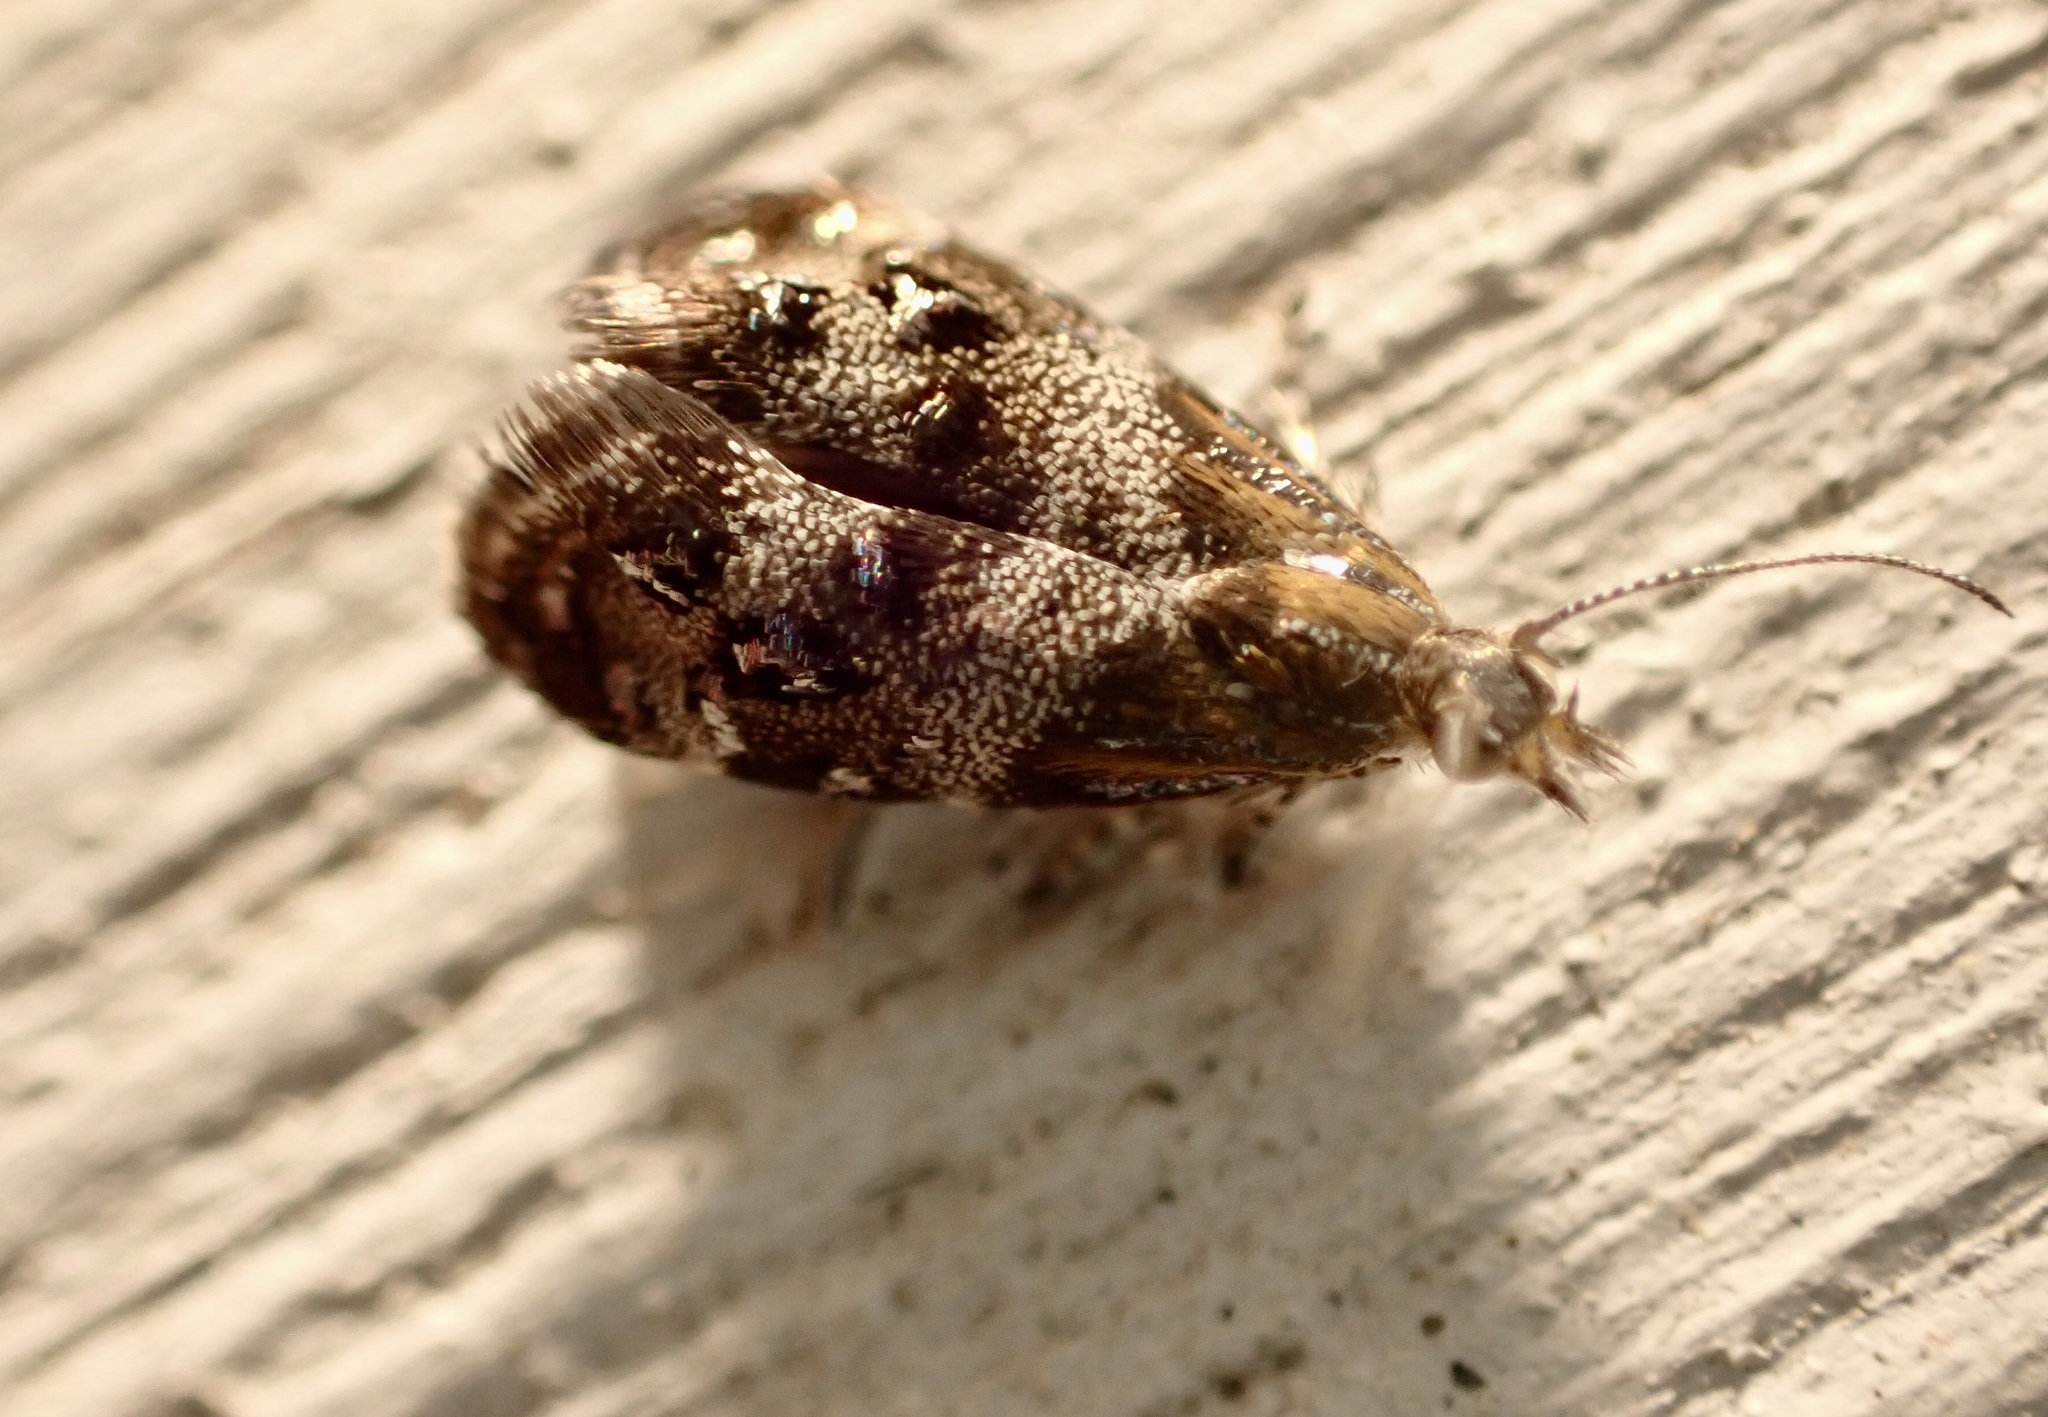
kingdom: Animalia
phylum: Arthropoda
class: Insecta
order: Lepidoptera
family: Choreutidae
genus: Tebenna
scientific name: Tebenna micalis
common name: Vagrant twitcher
